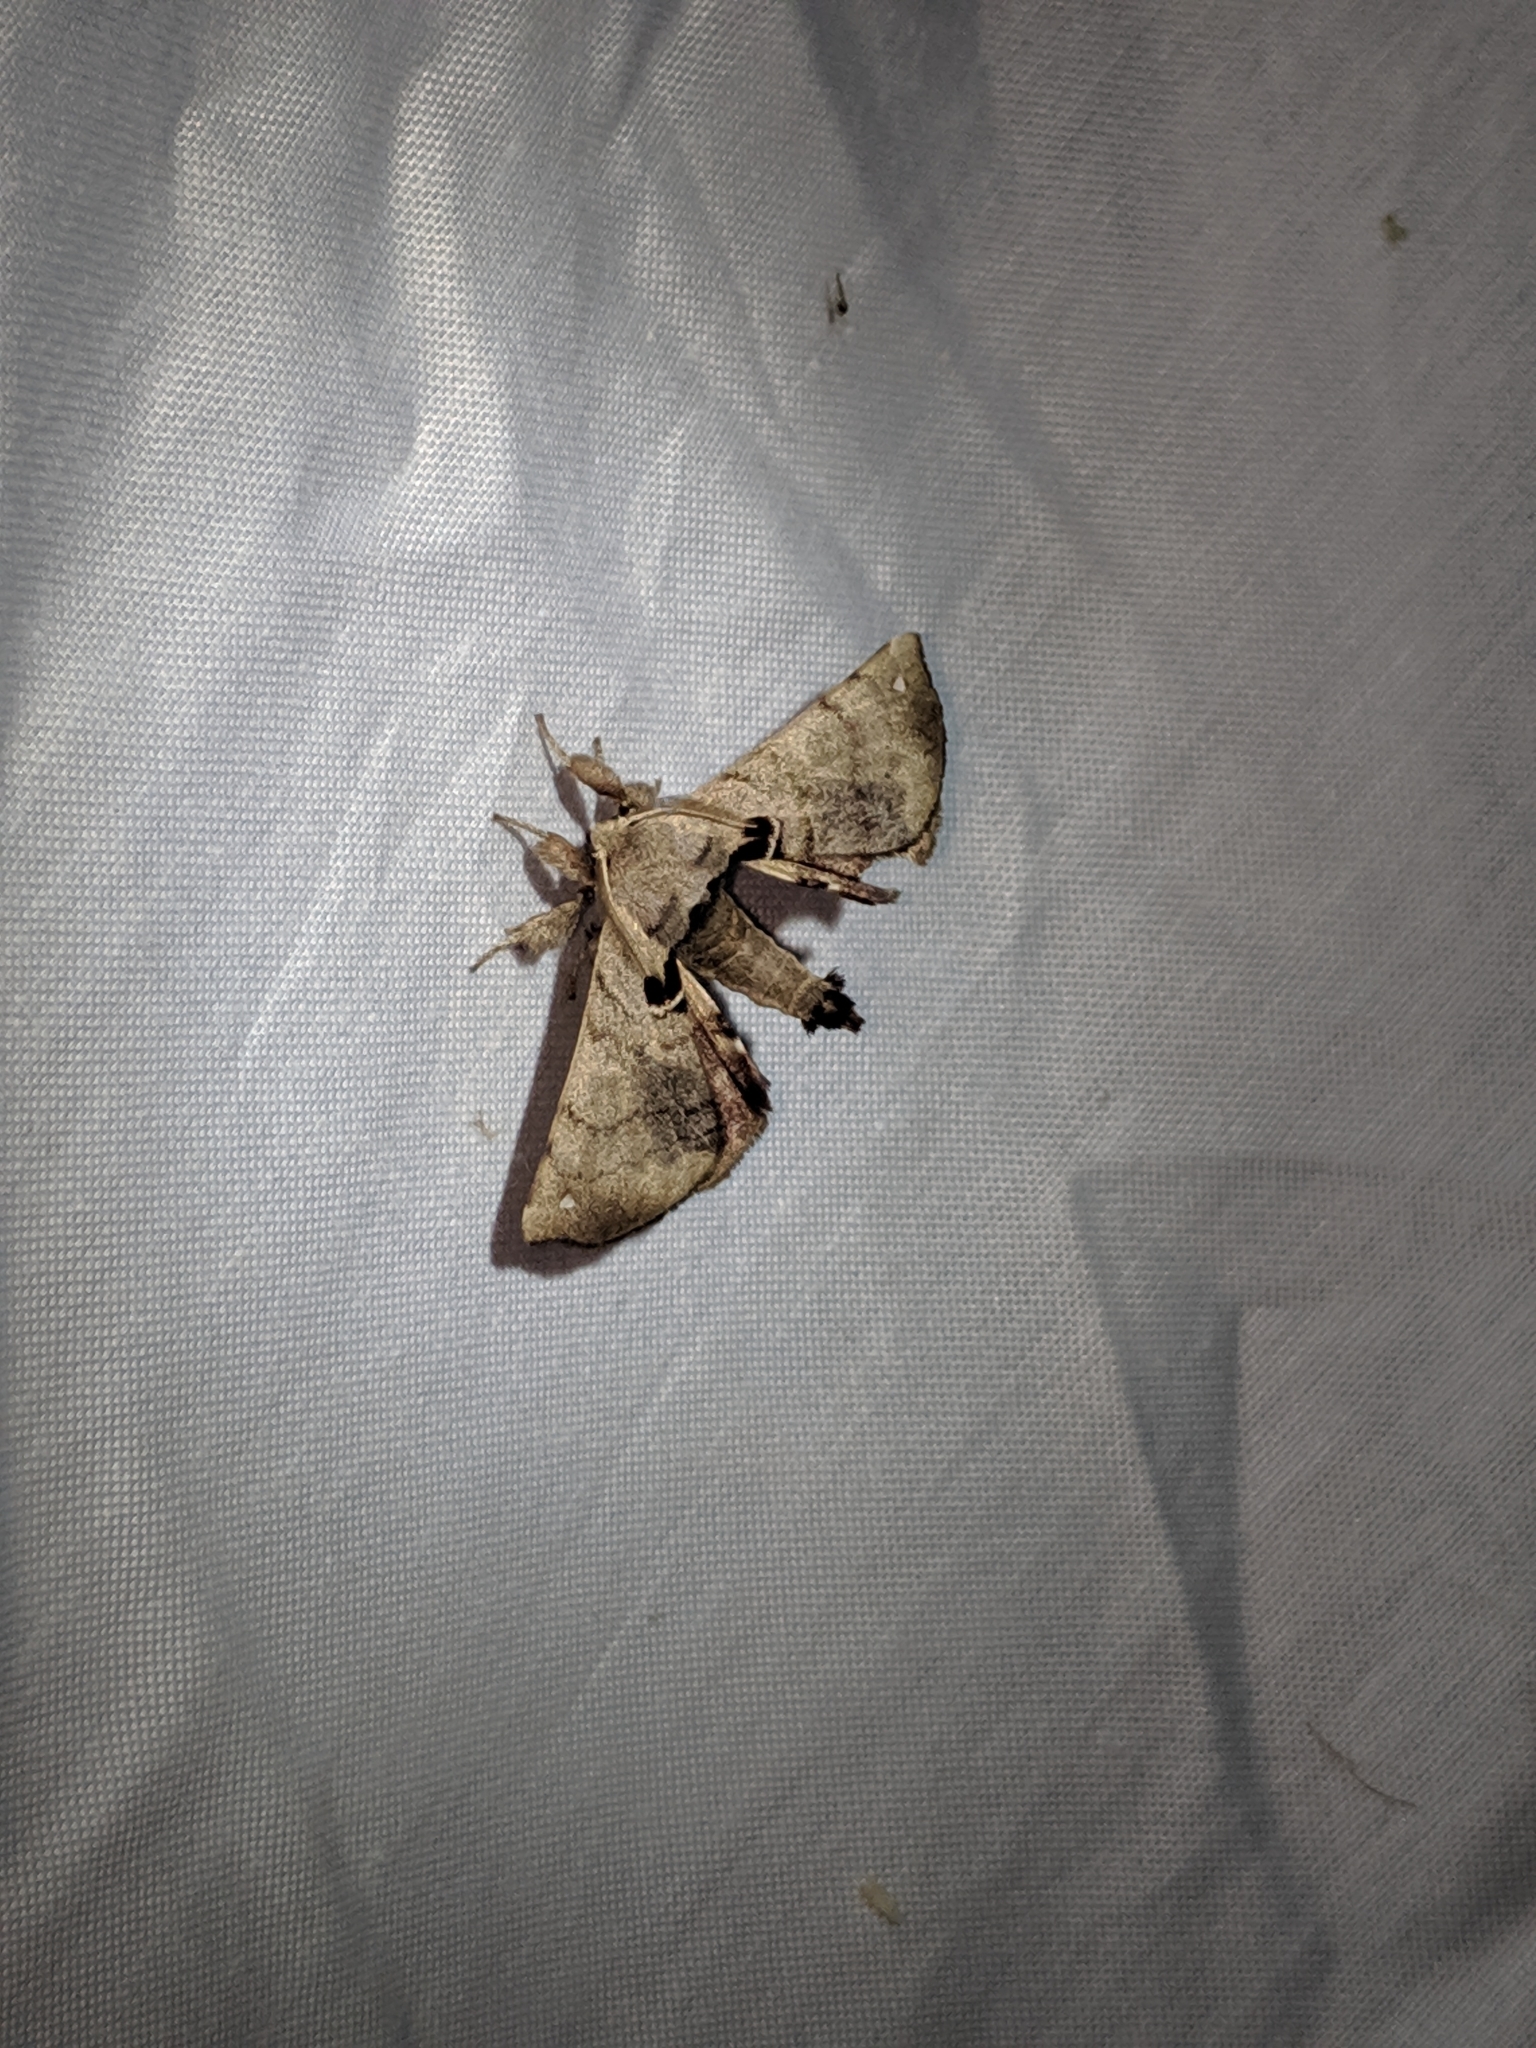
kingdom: Animalia
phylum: Arthropoda
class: Insecta
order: Lepidoptera
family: Apatelodidae
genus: Hygrochroa
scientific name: Hygrochroa Apatelodes torrefacta
